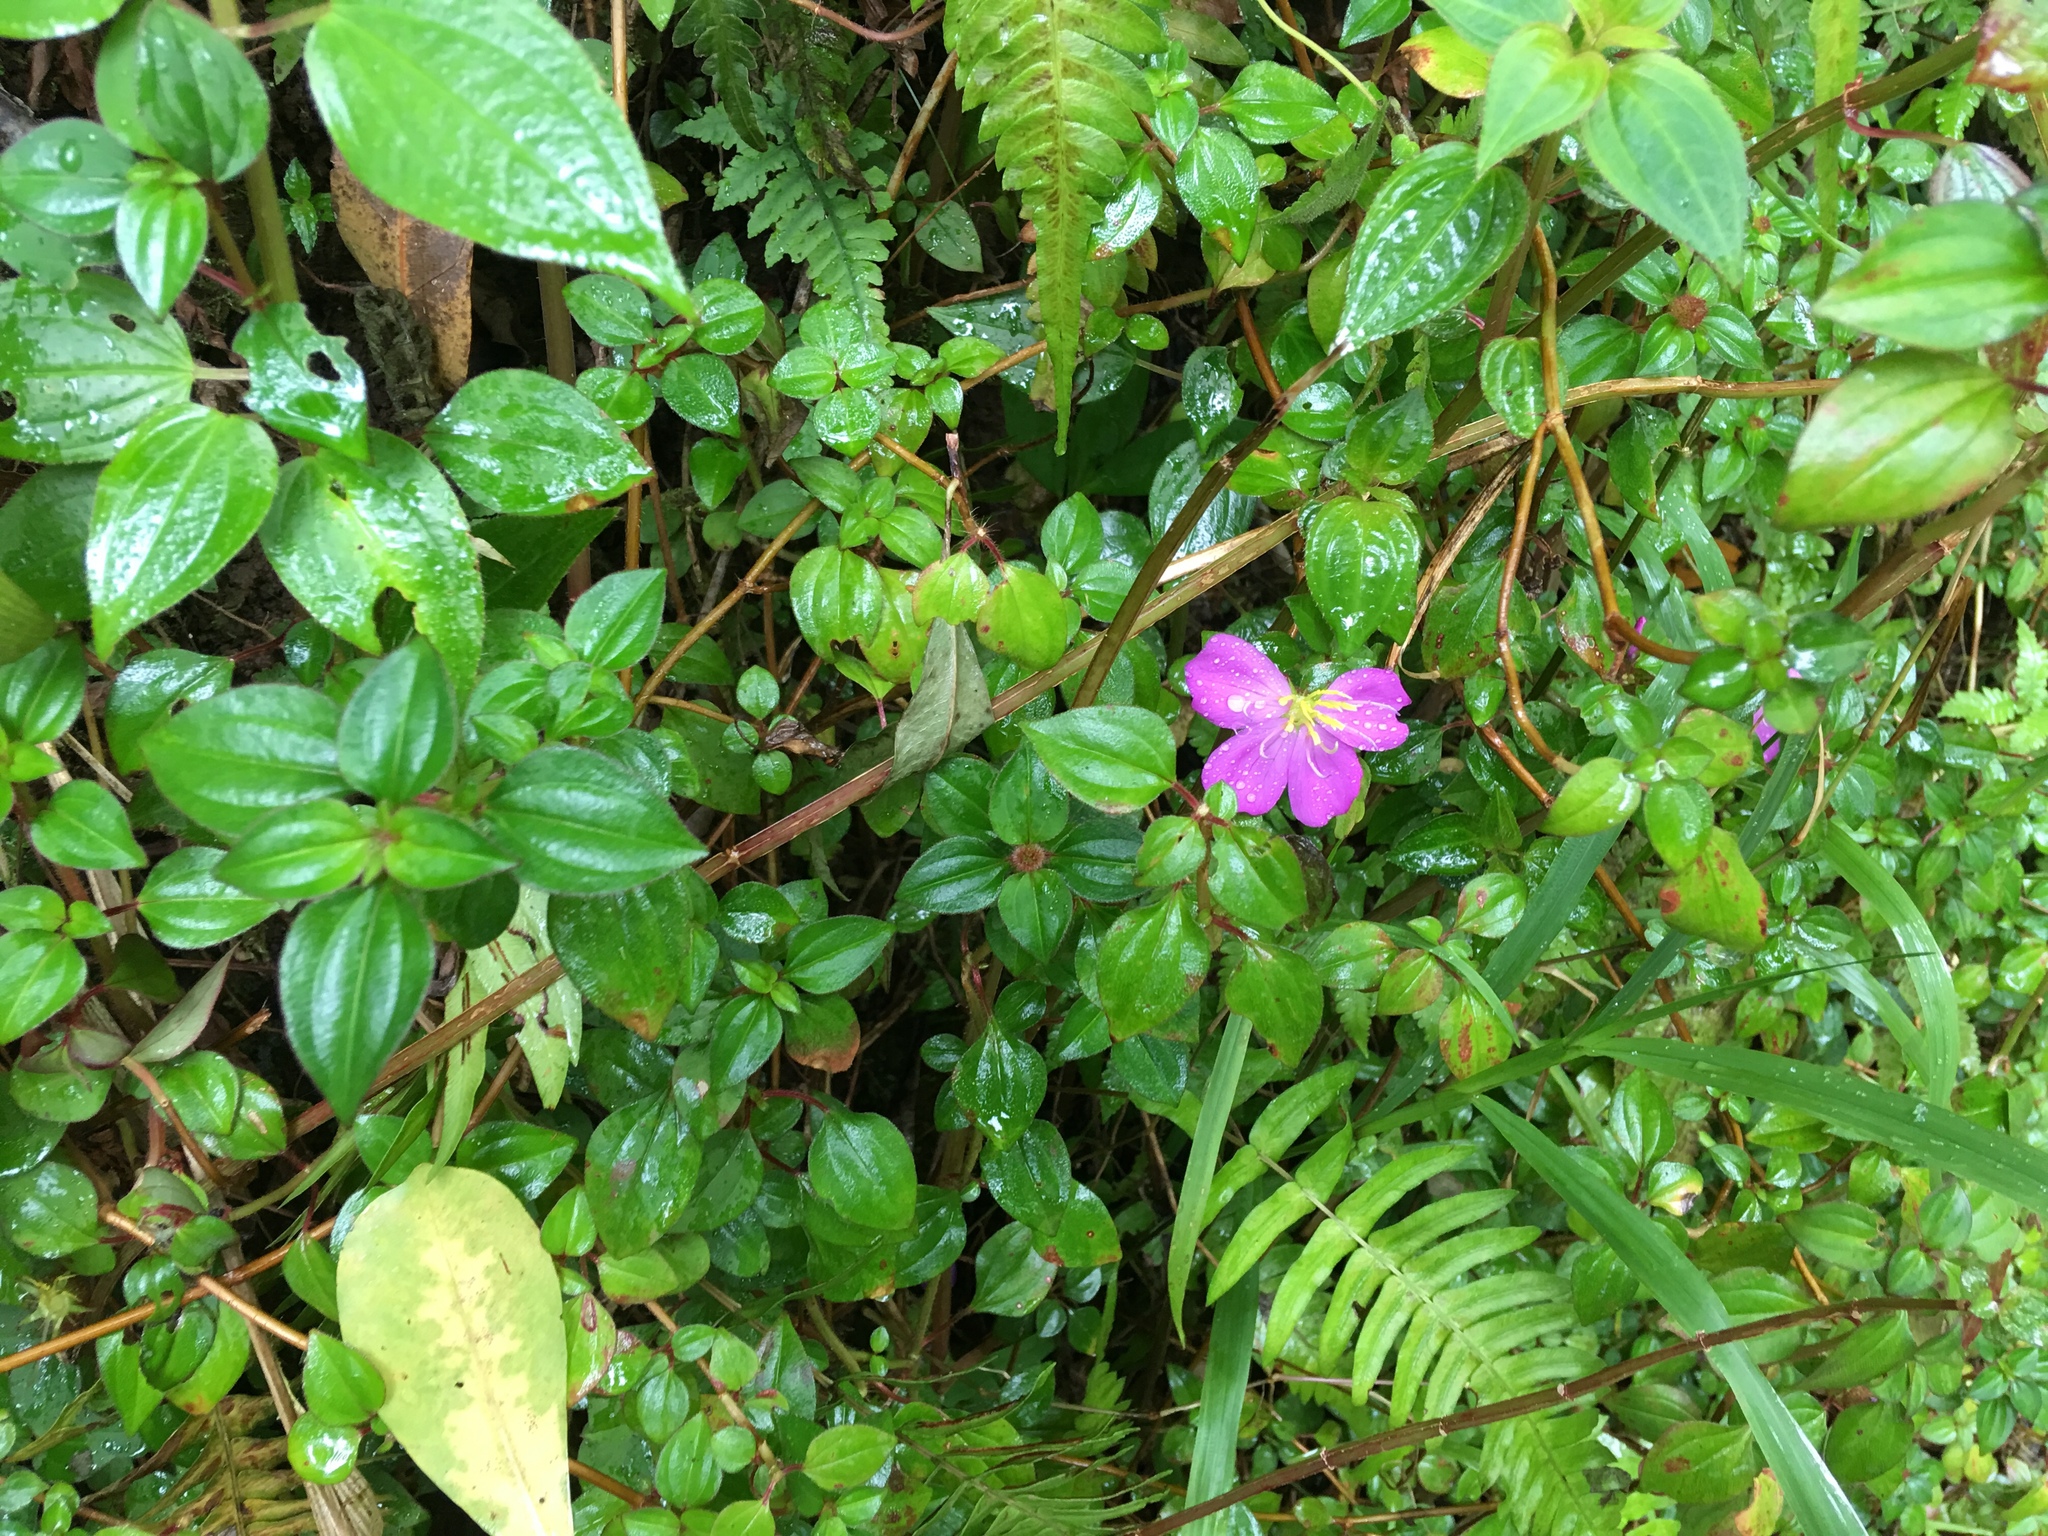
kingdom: Plantae
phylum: Tracheophyta
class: Magnoliopsida
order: Myrtales
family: Melastomataceae
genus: Heterotis
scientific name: Heterotis rotundifolia
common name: Pinklady
